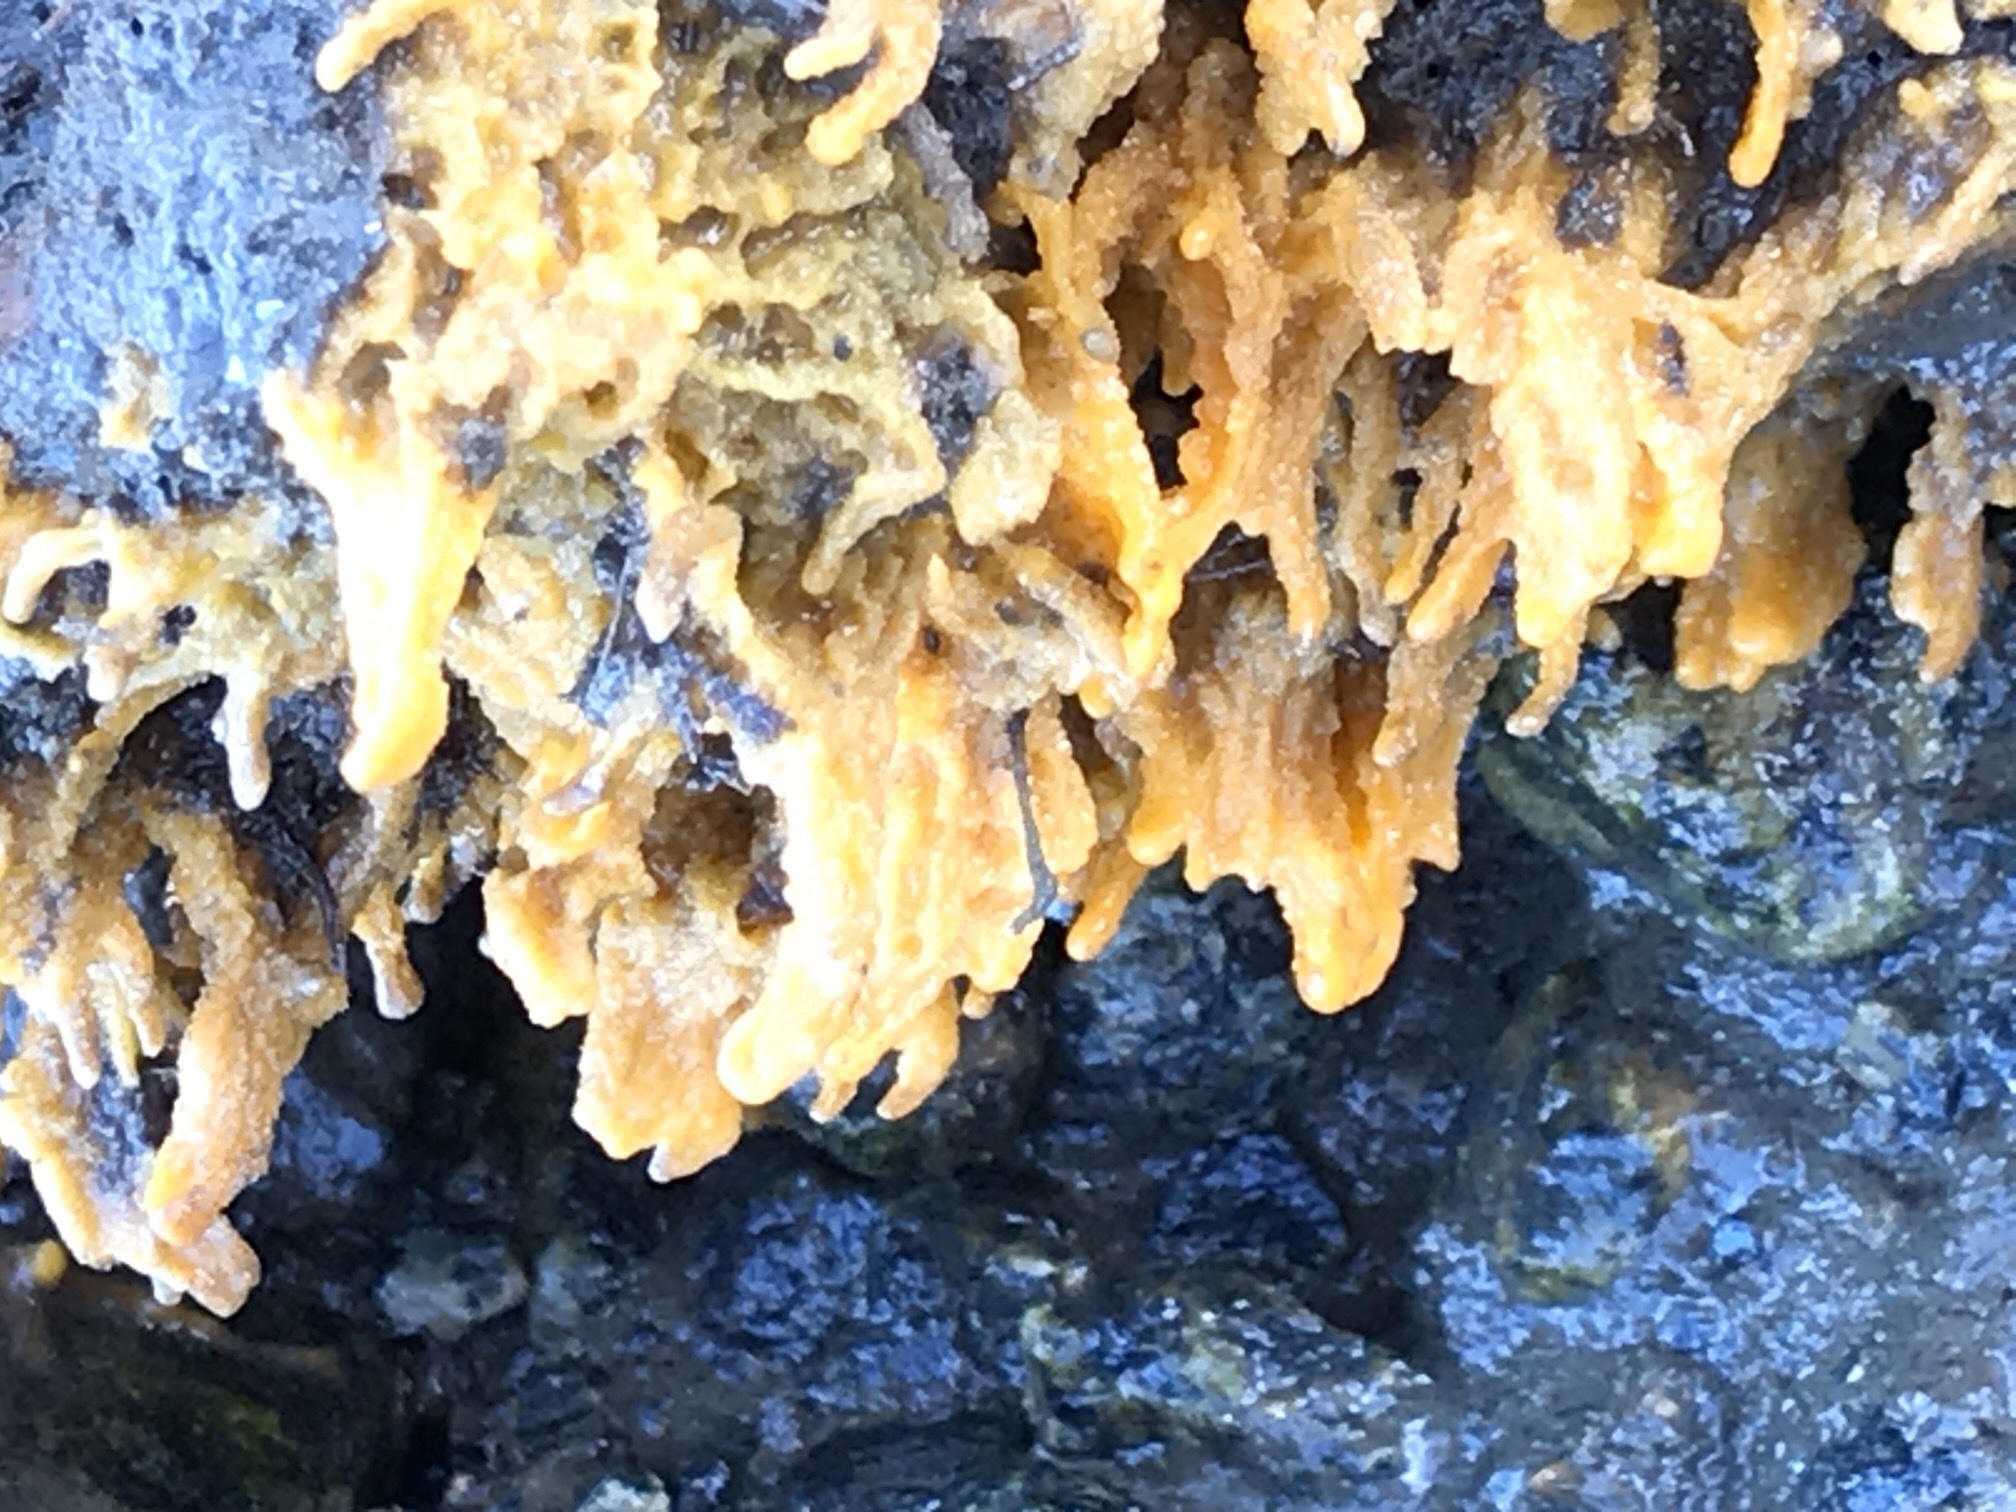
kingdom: Animalia
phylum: Porifera
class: Demospongiae
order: Suberitida
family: Halichondriidae
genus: Hymeniacidon
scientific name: Hymeniacidon perlevis
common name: Crumb-of-bread sponge
